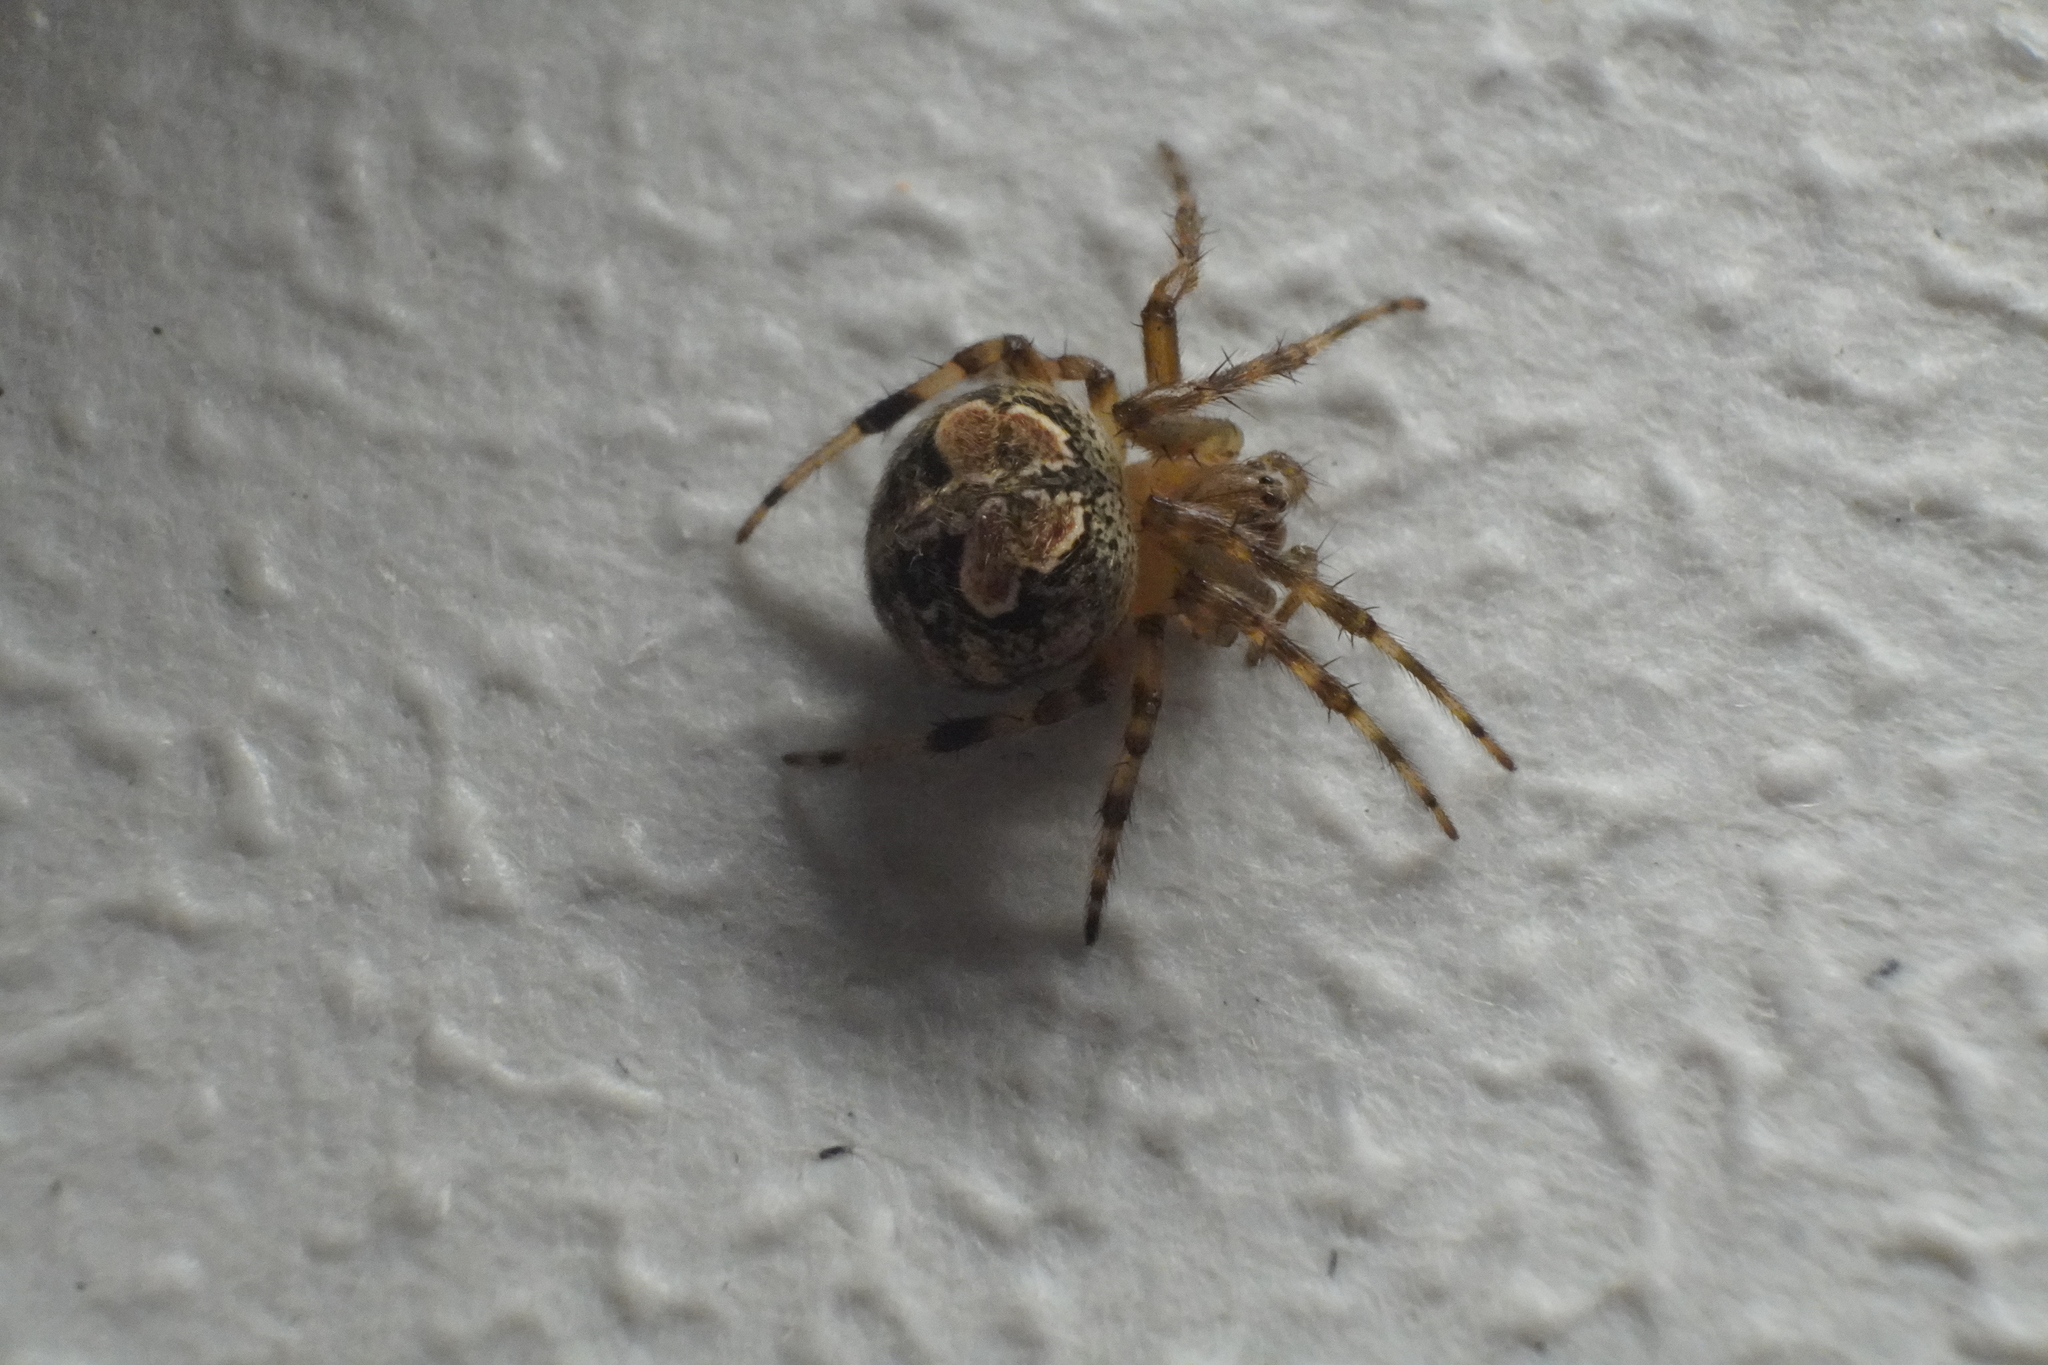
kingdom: Animalia
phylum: Arthropoda
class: Arachnida
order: Araneae
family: Araneidae
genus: Araneus
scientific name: Araneus pegnia
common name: Orb weavers
